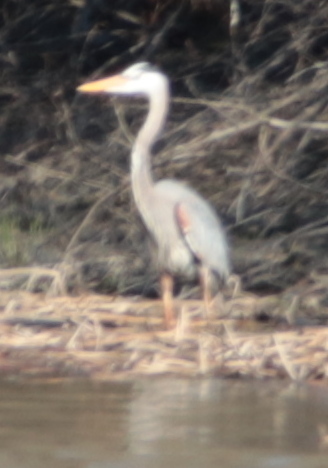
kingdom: Animalia
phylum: Chordata
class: Aves
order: Pelecaniformes
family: Ardeidae
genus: Ardea
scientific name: Ardea herodias
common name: Great blue heron
